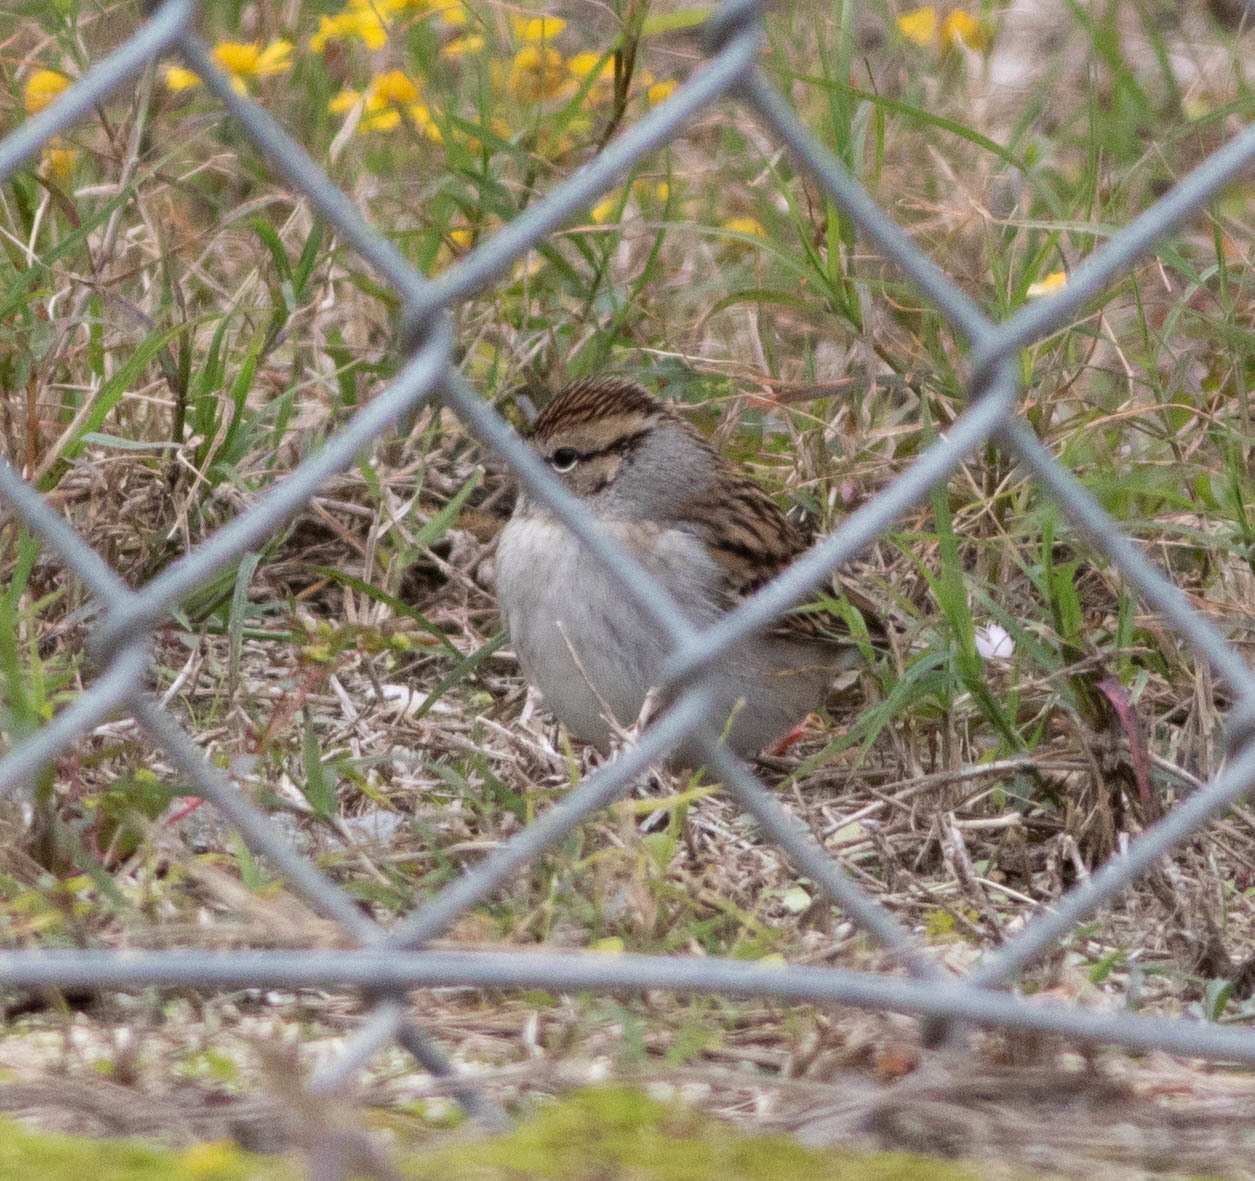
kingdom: Animalia
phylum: Chordata
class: Aves
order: Passeriformes
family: Passerellidae
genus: Spizella
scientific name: Spizella passerina
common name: Chipping sparrow
